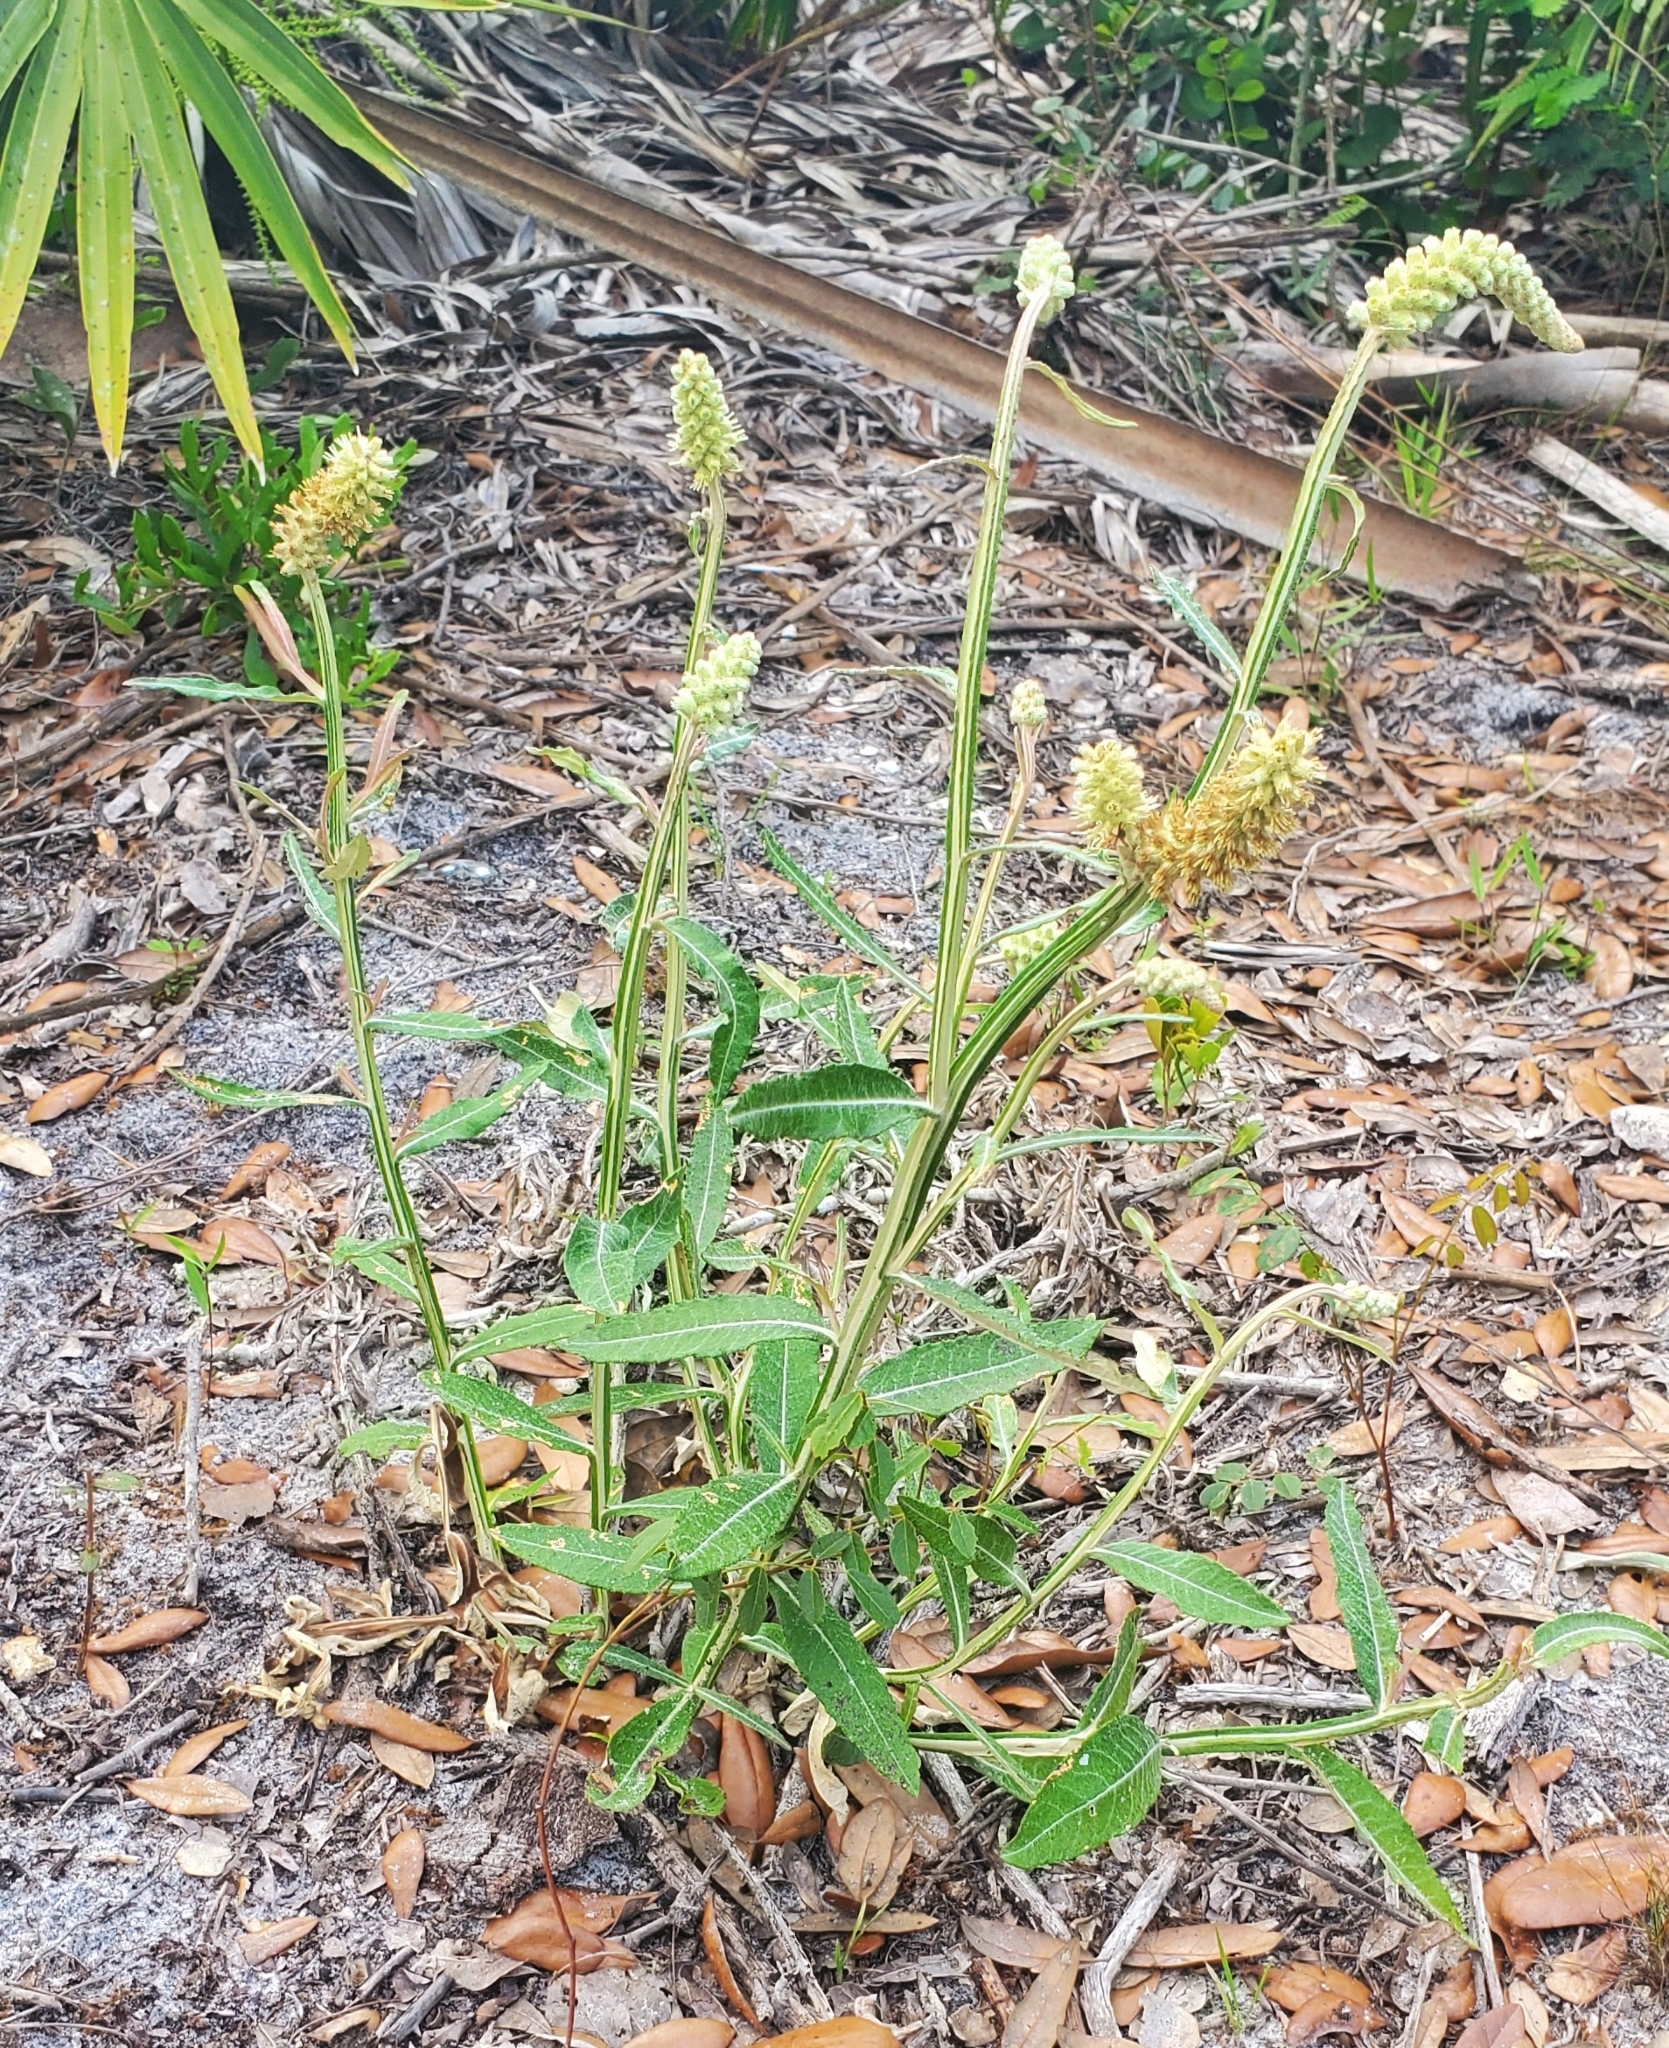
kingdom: Plantae
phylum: Tracheophyta
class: Magnoliopsida
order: Asterales
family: Asteraceae
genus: Pterocaulon
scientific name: Pterocaulon pycnostachyum
